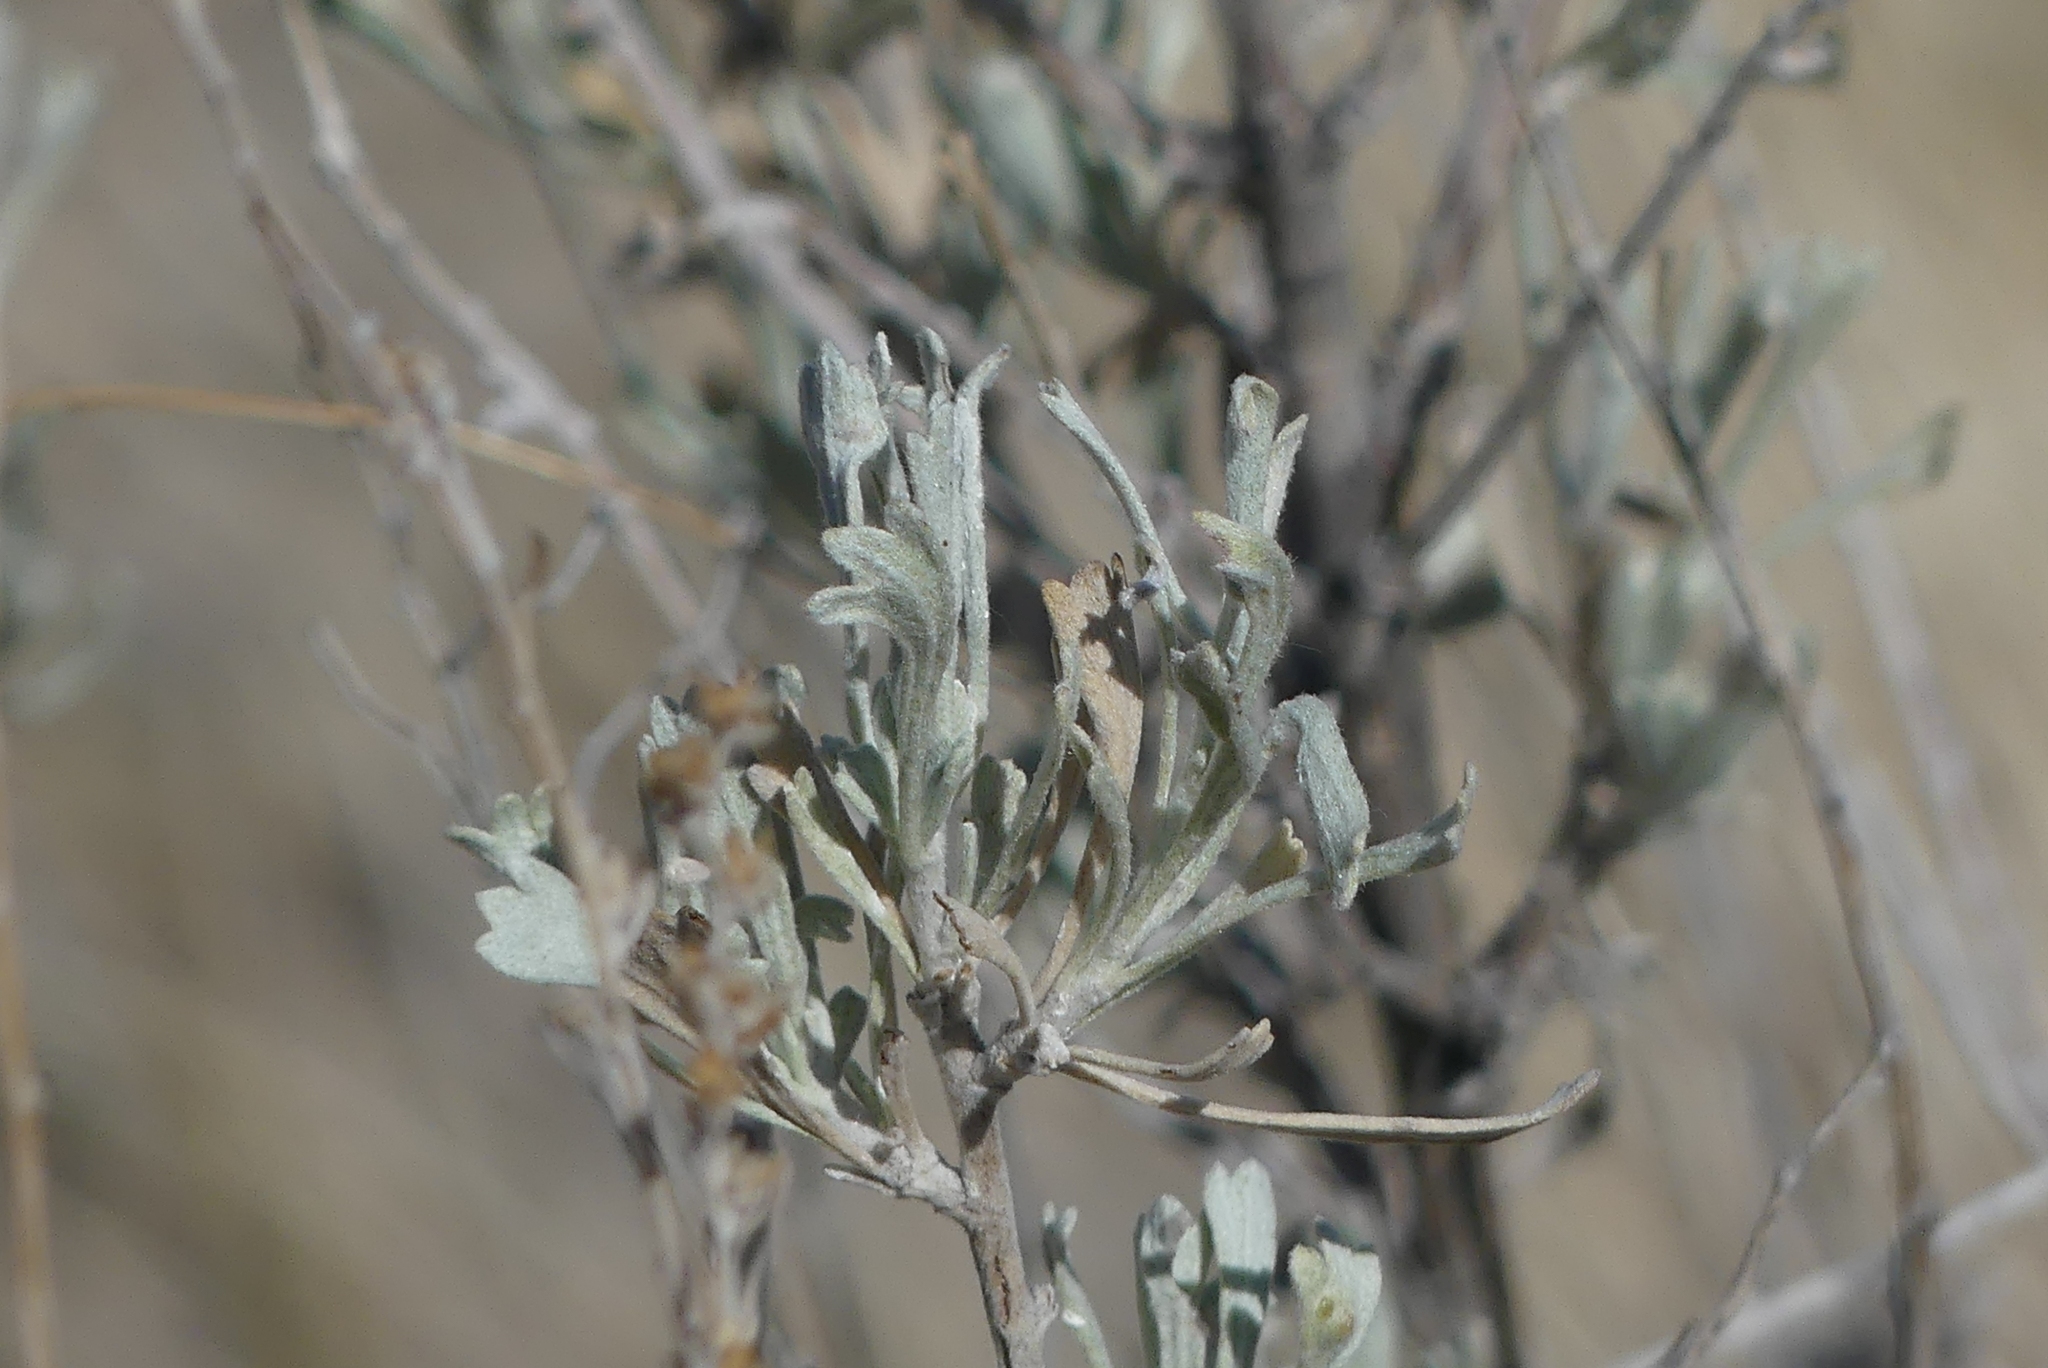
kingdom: Plantae
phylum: Tracheophyta
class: Magnoliopsida
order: Asterales
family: Asteraceae
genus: Artemisia
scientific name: Artemisia tridentata
